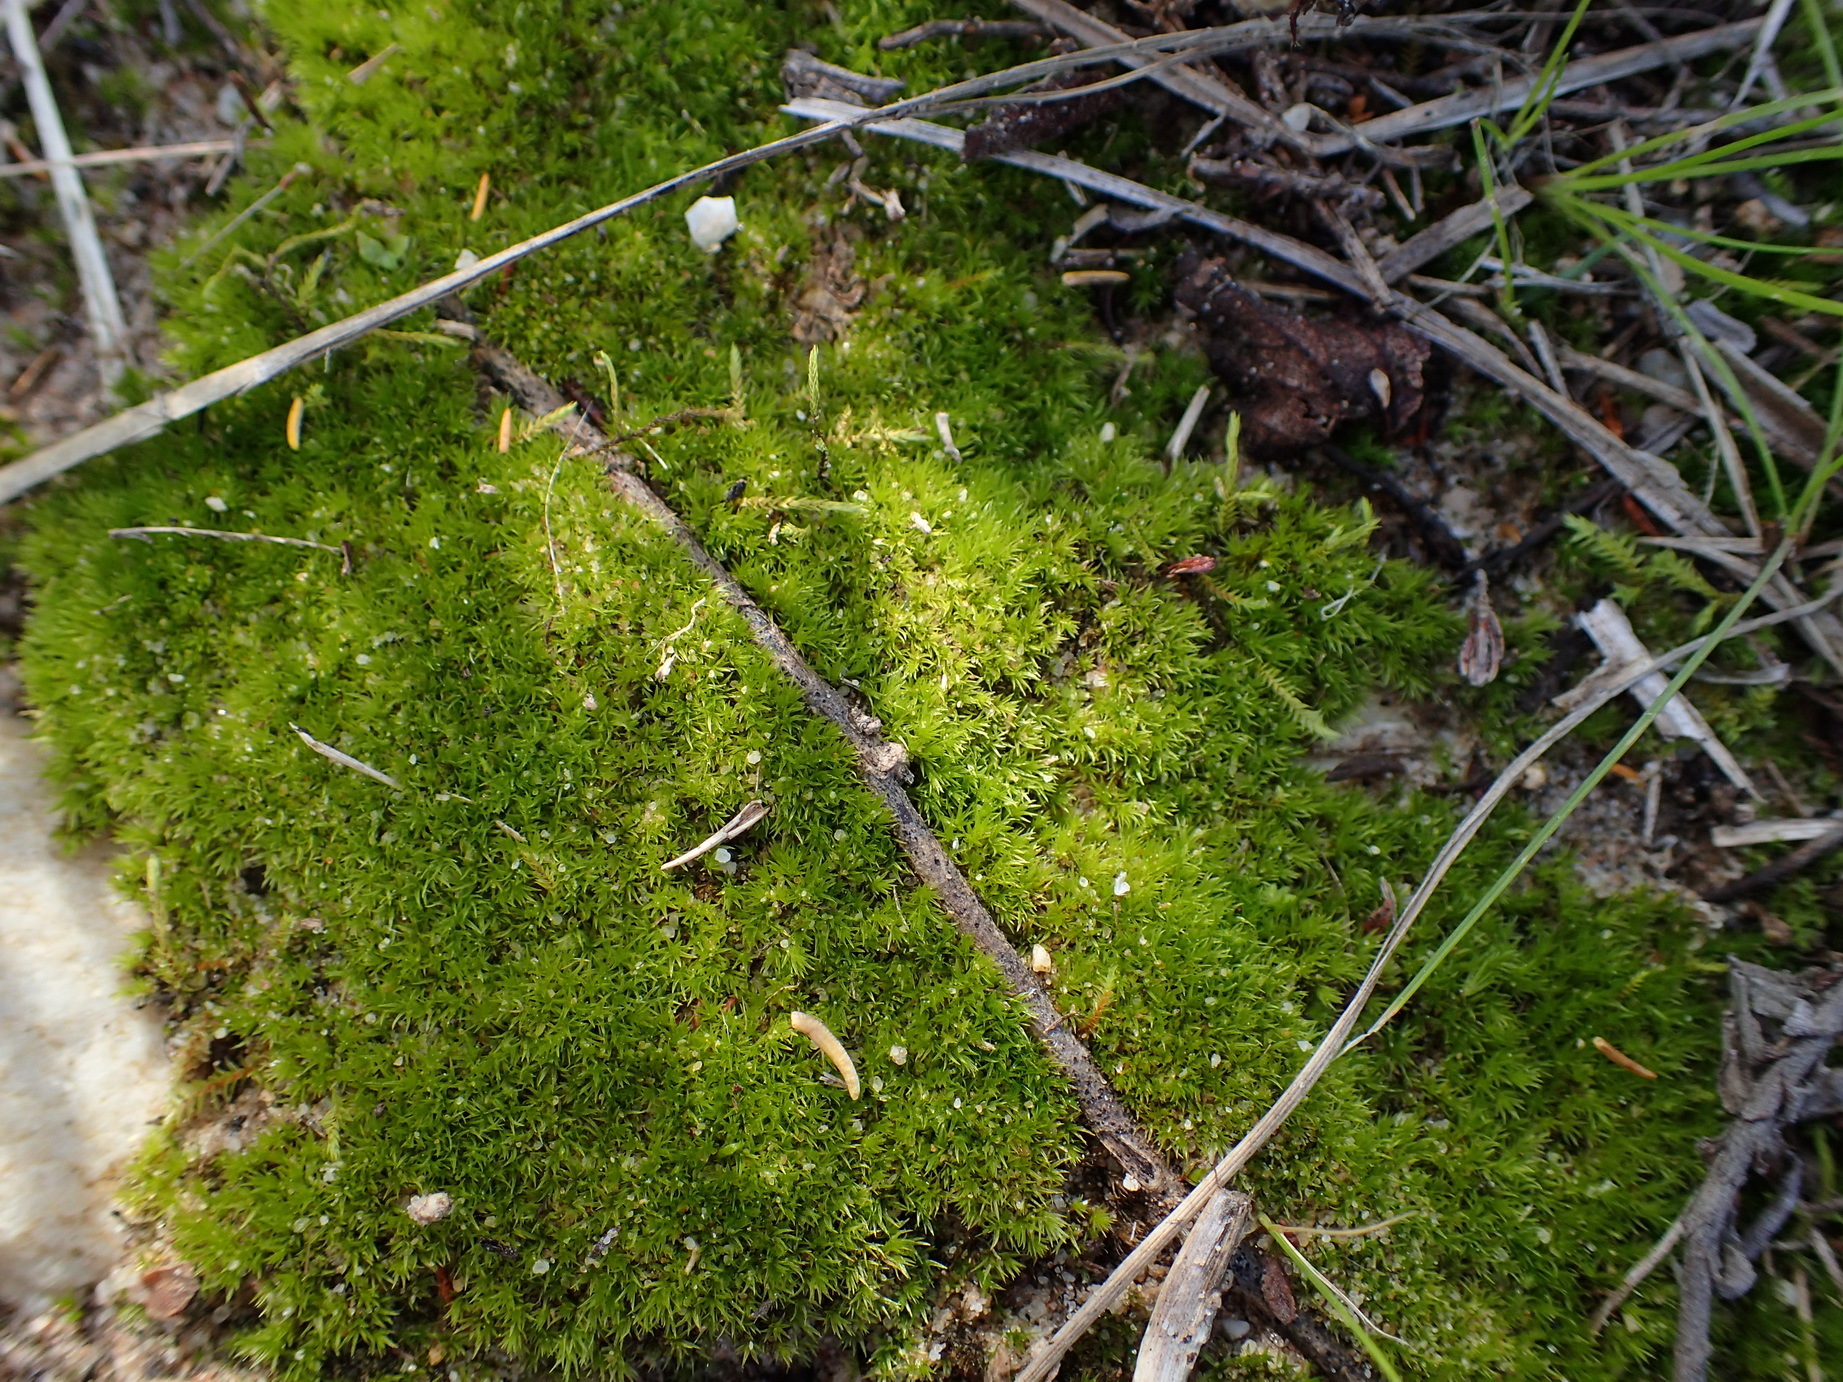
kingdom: Plantae
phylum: Bryophyta
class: Bryopsida
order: Pottiales
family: Pottiaceae
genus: Triquetrella
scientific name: Triquetrella tristicha
